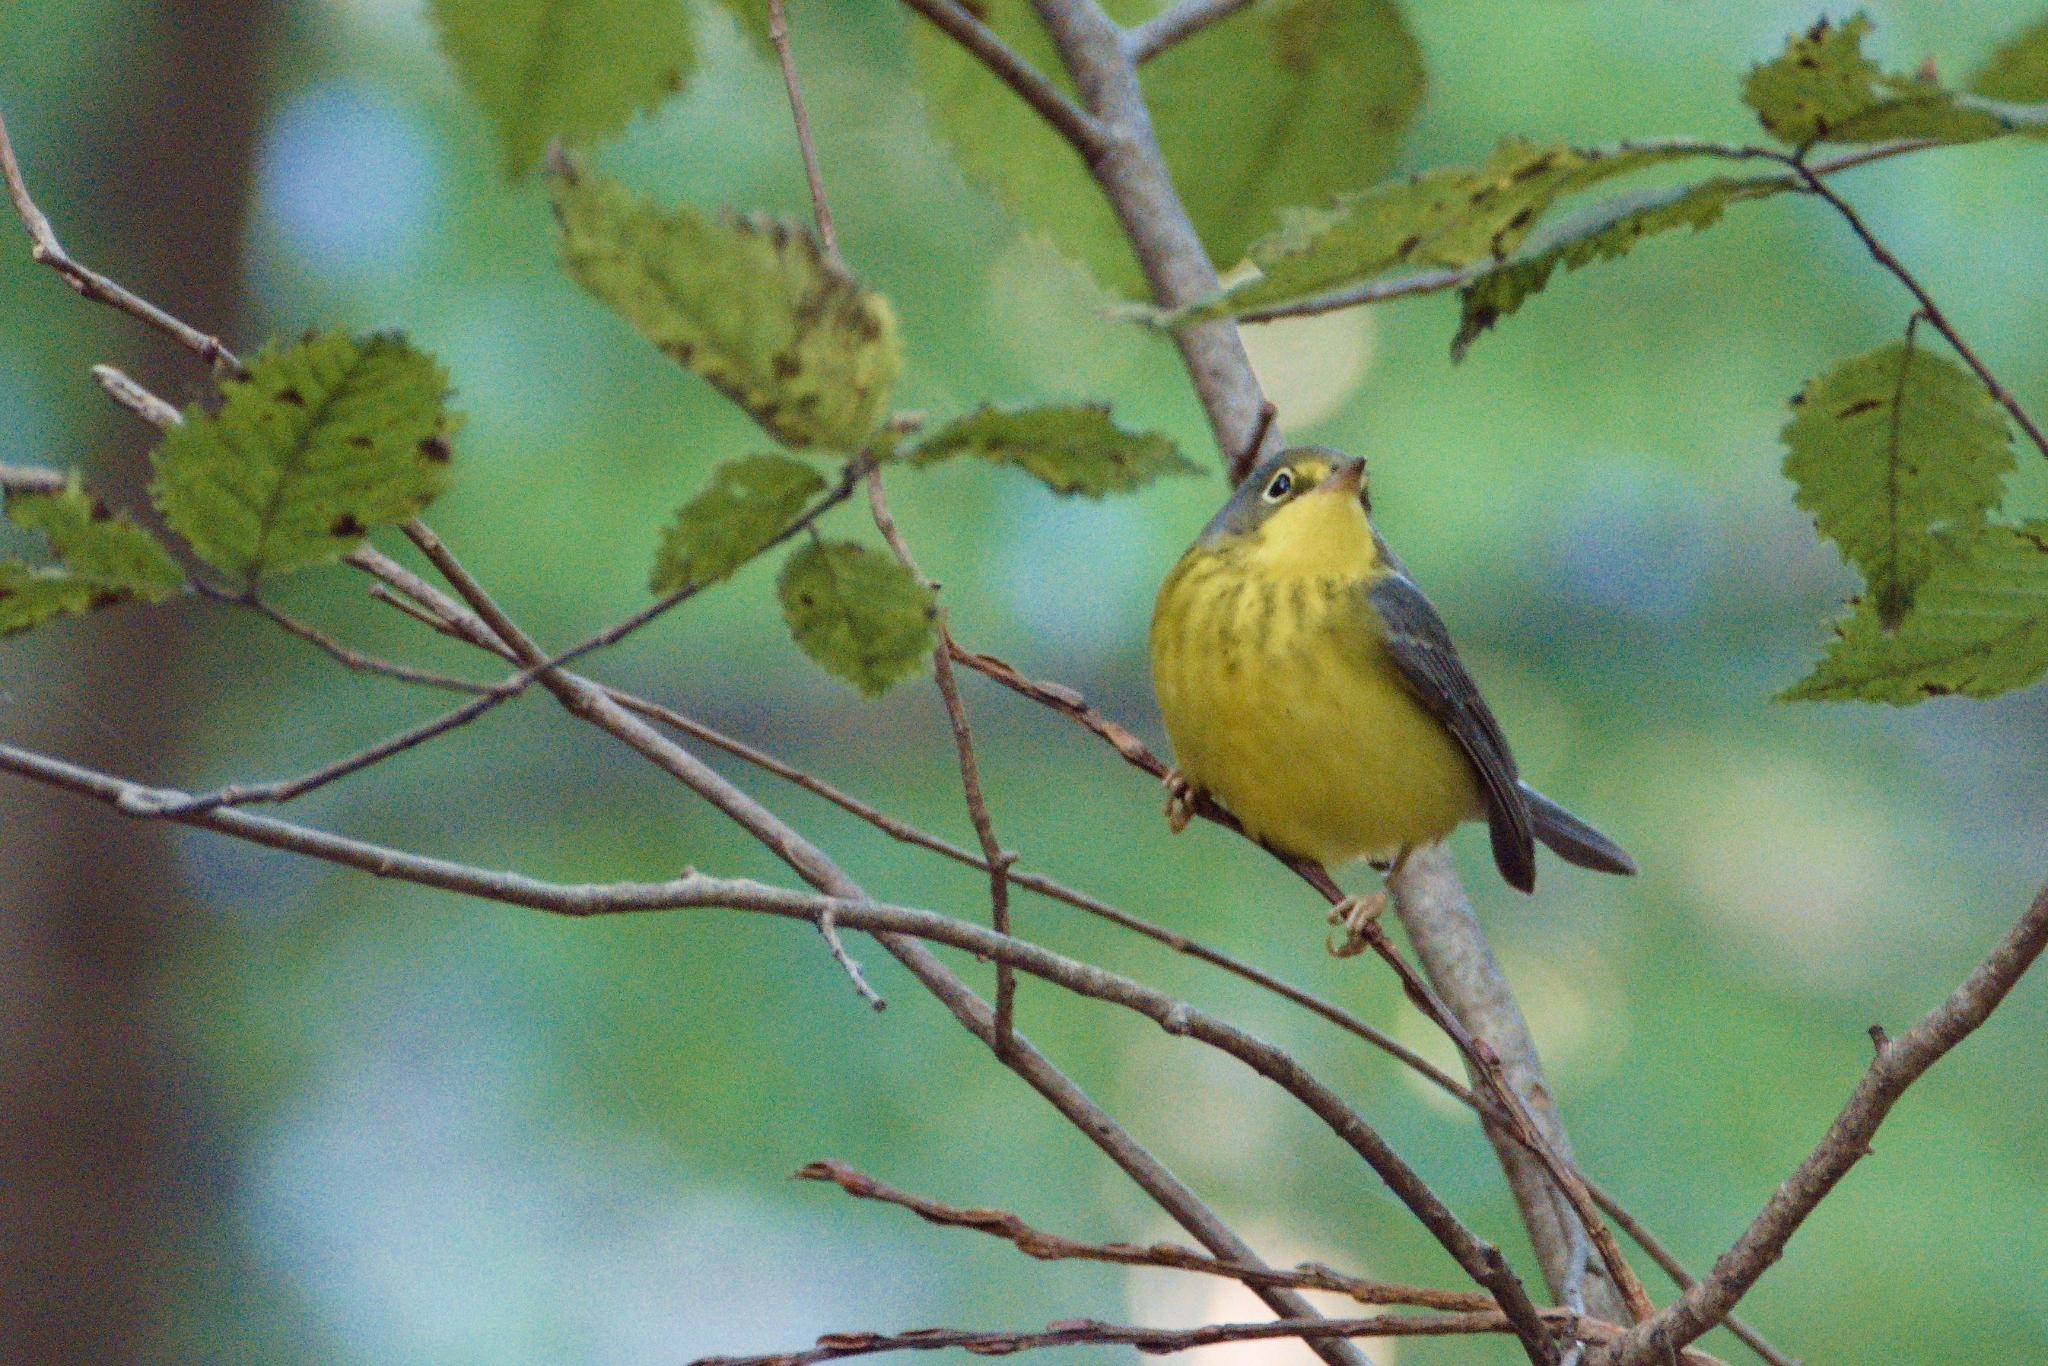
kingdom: Animalia
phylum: Chordata
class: Aves
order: Passeriformes
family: Parulidae
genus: Cardellina
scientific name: Cardellina canadensis
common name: Canada warbler
